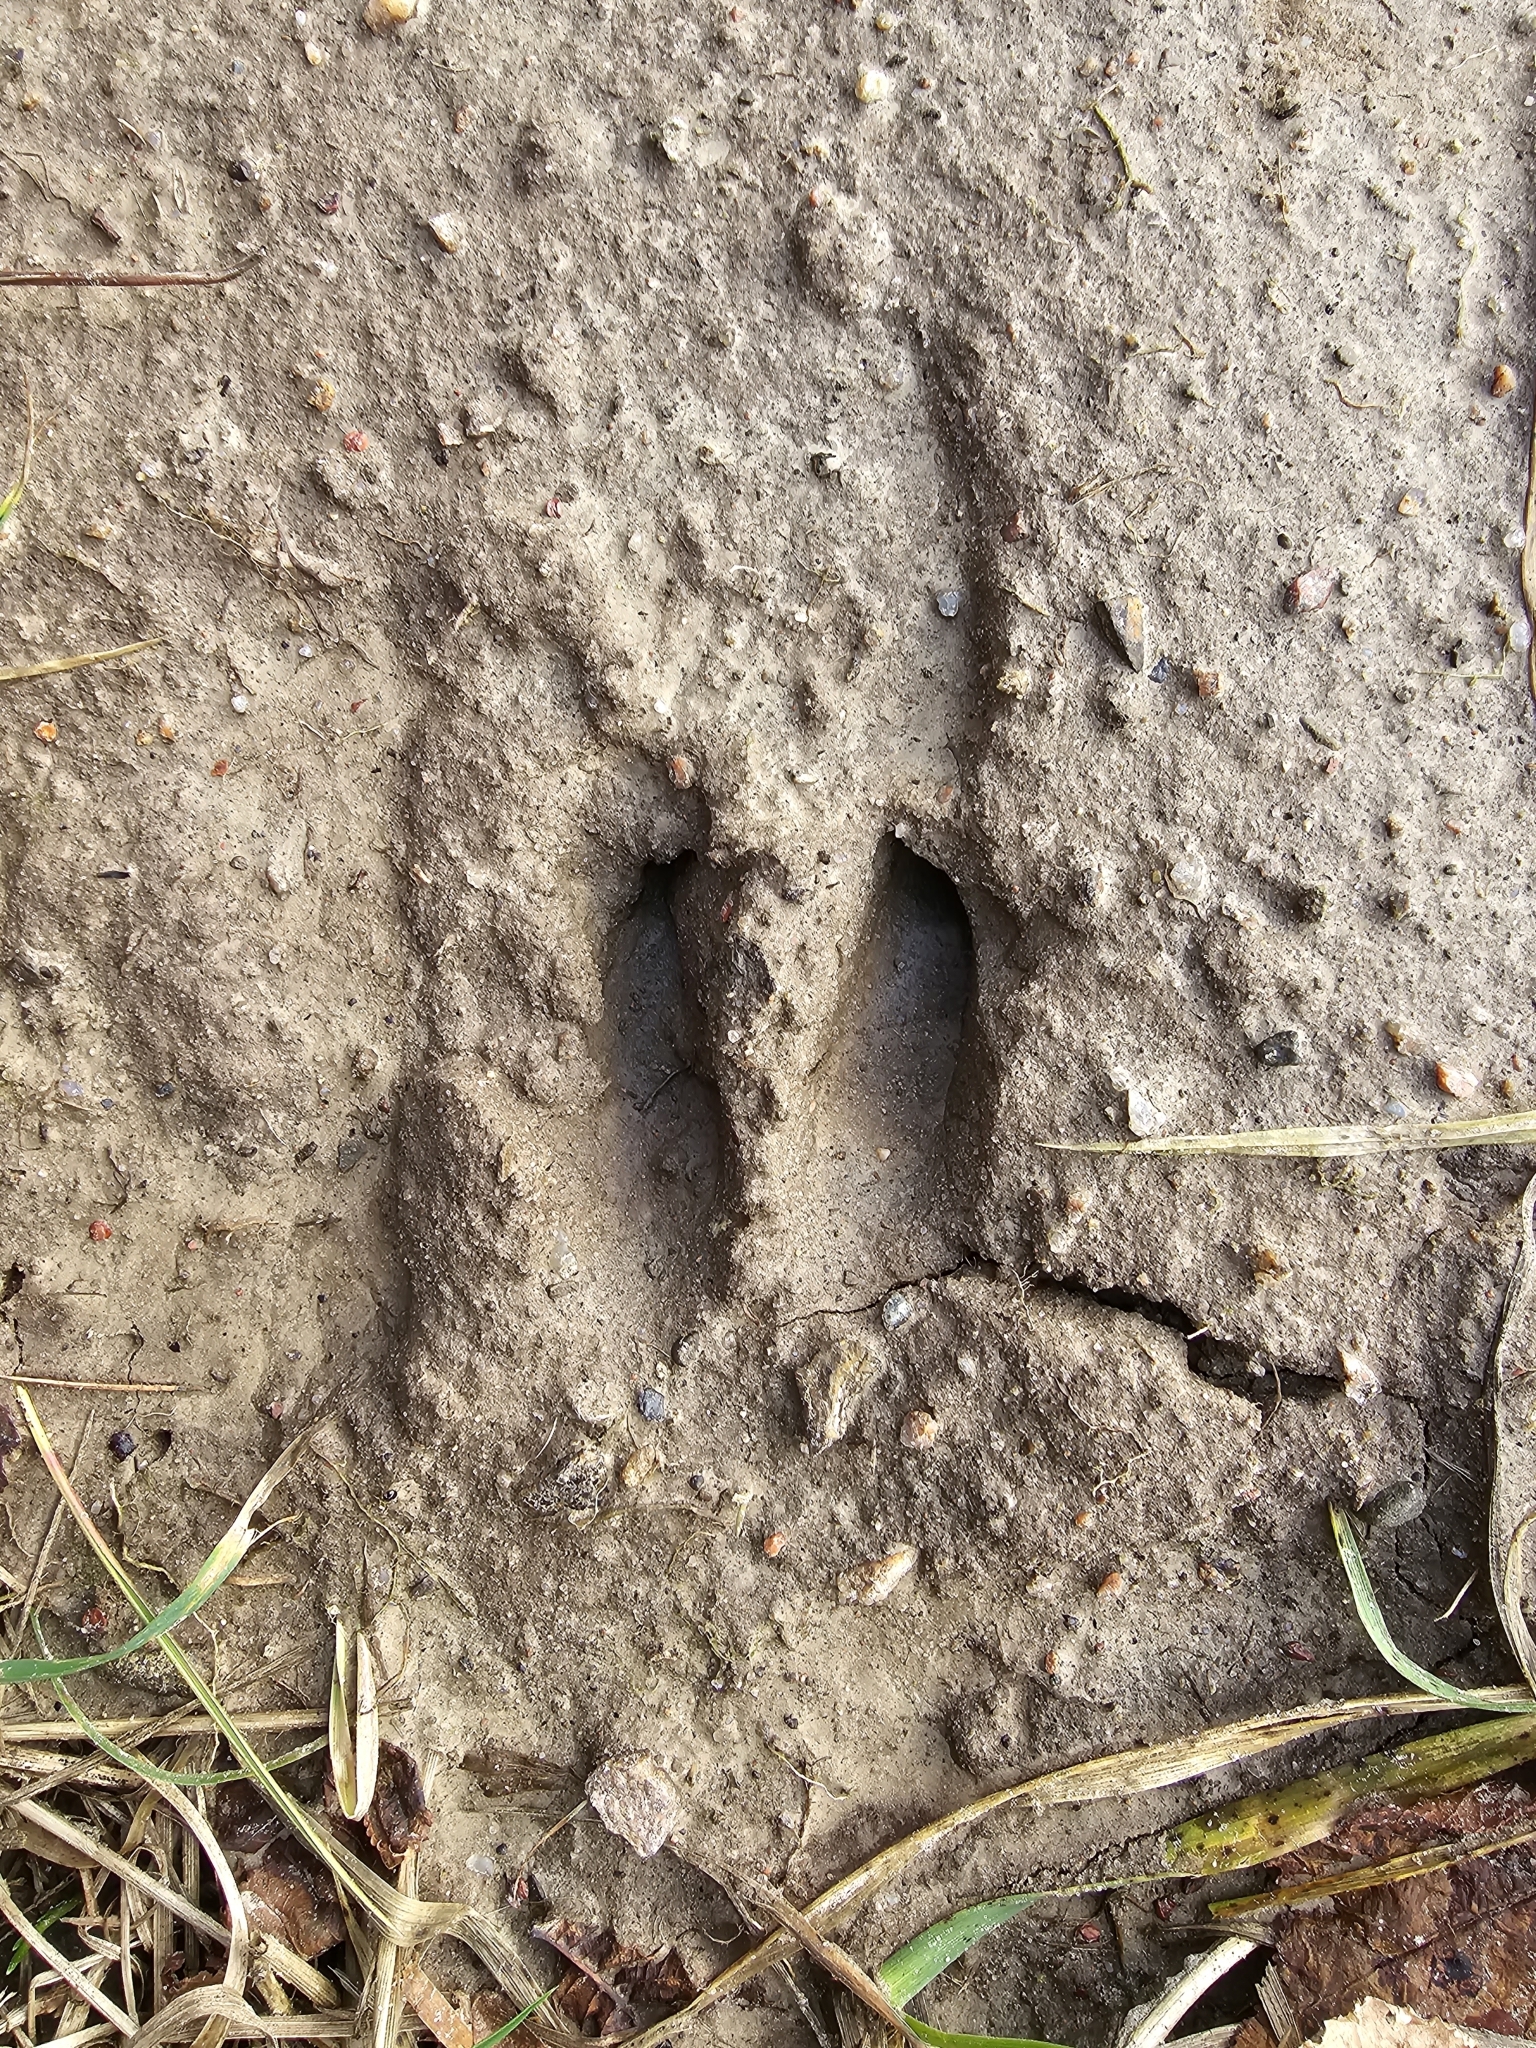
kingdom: Animalia
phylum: Chordata
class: Mammalia
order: Artiodactyla
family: Cervidae
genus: Capreolus
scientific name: Capreolus capreolus
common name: Western roe deer
